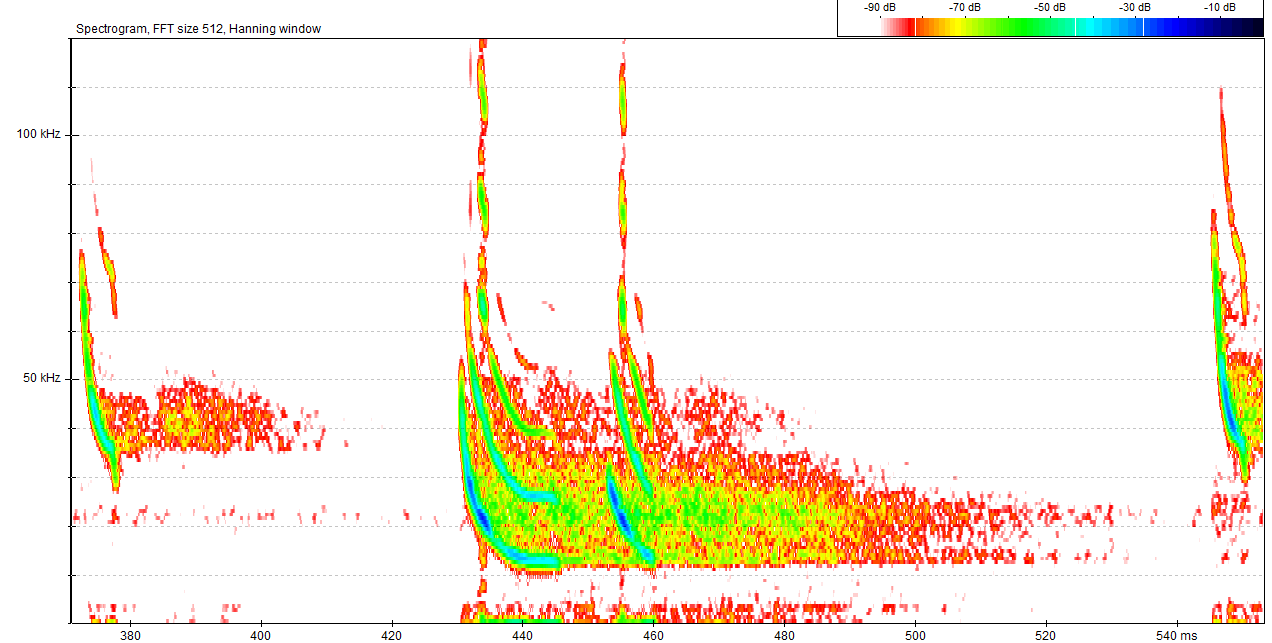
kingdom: Animalia
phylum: Chordata
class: Mammalia
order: Chiroptera
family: Vespertilionidae
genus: Pipistrellus
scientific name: Pipistrellus kuhlii
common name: Kuhl's pipistrelle
